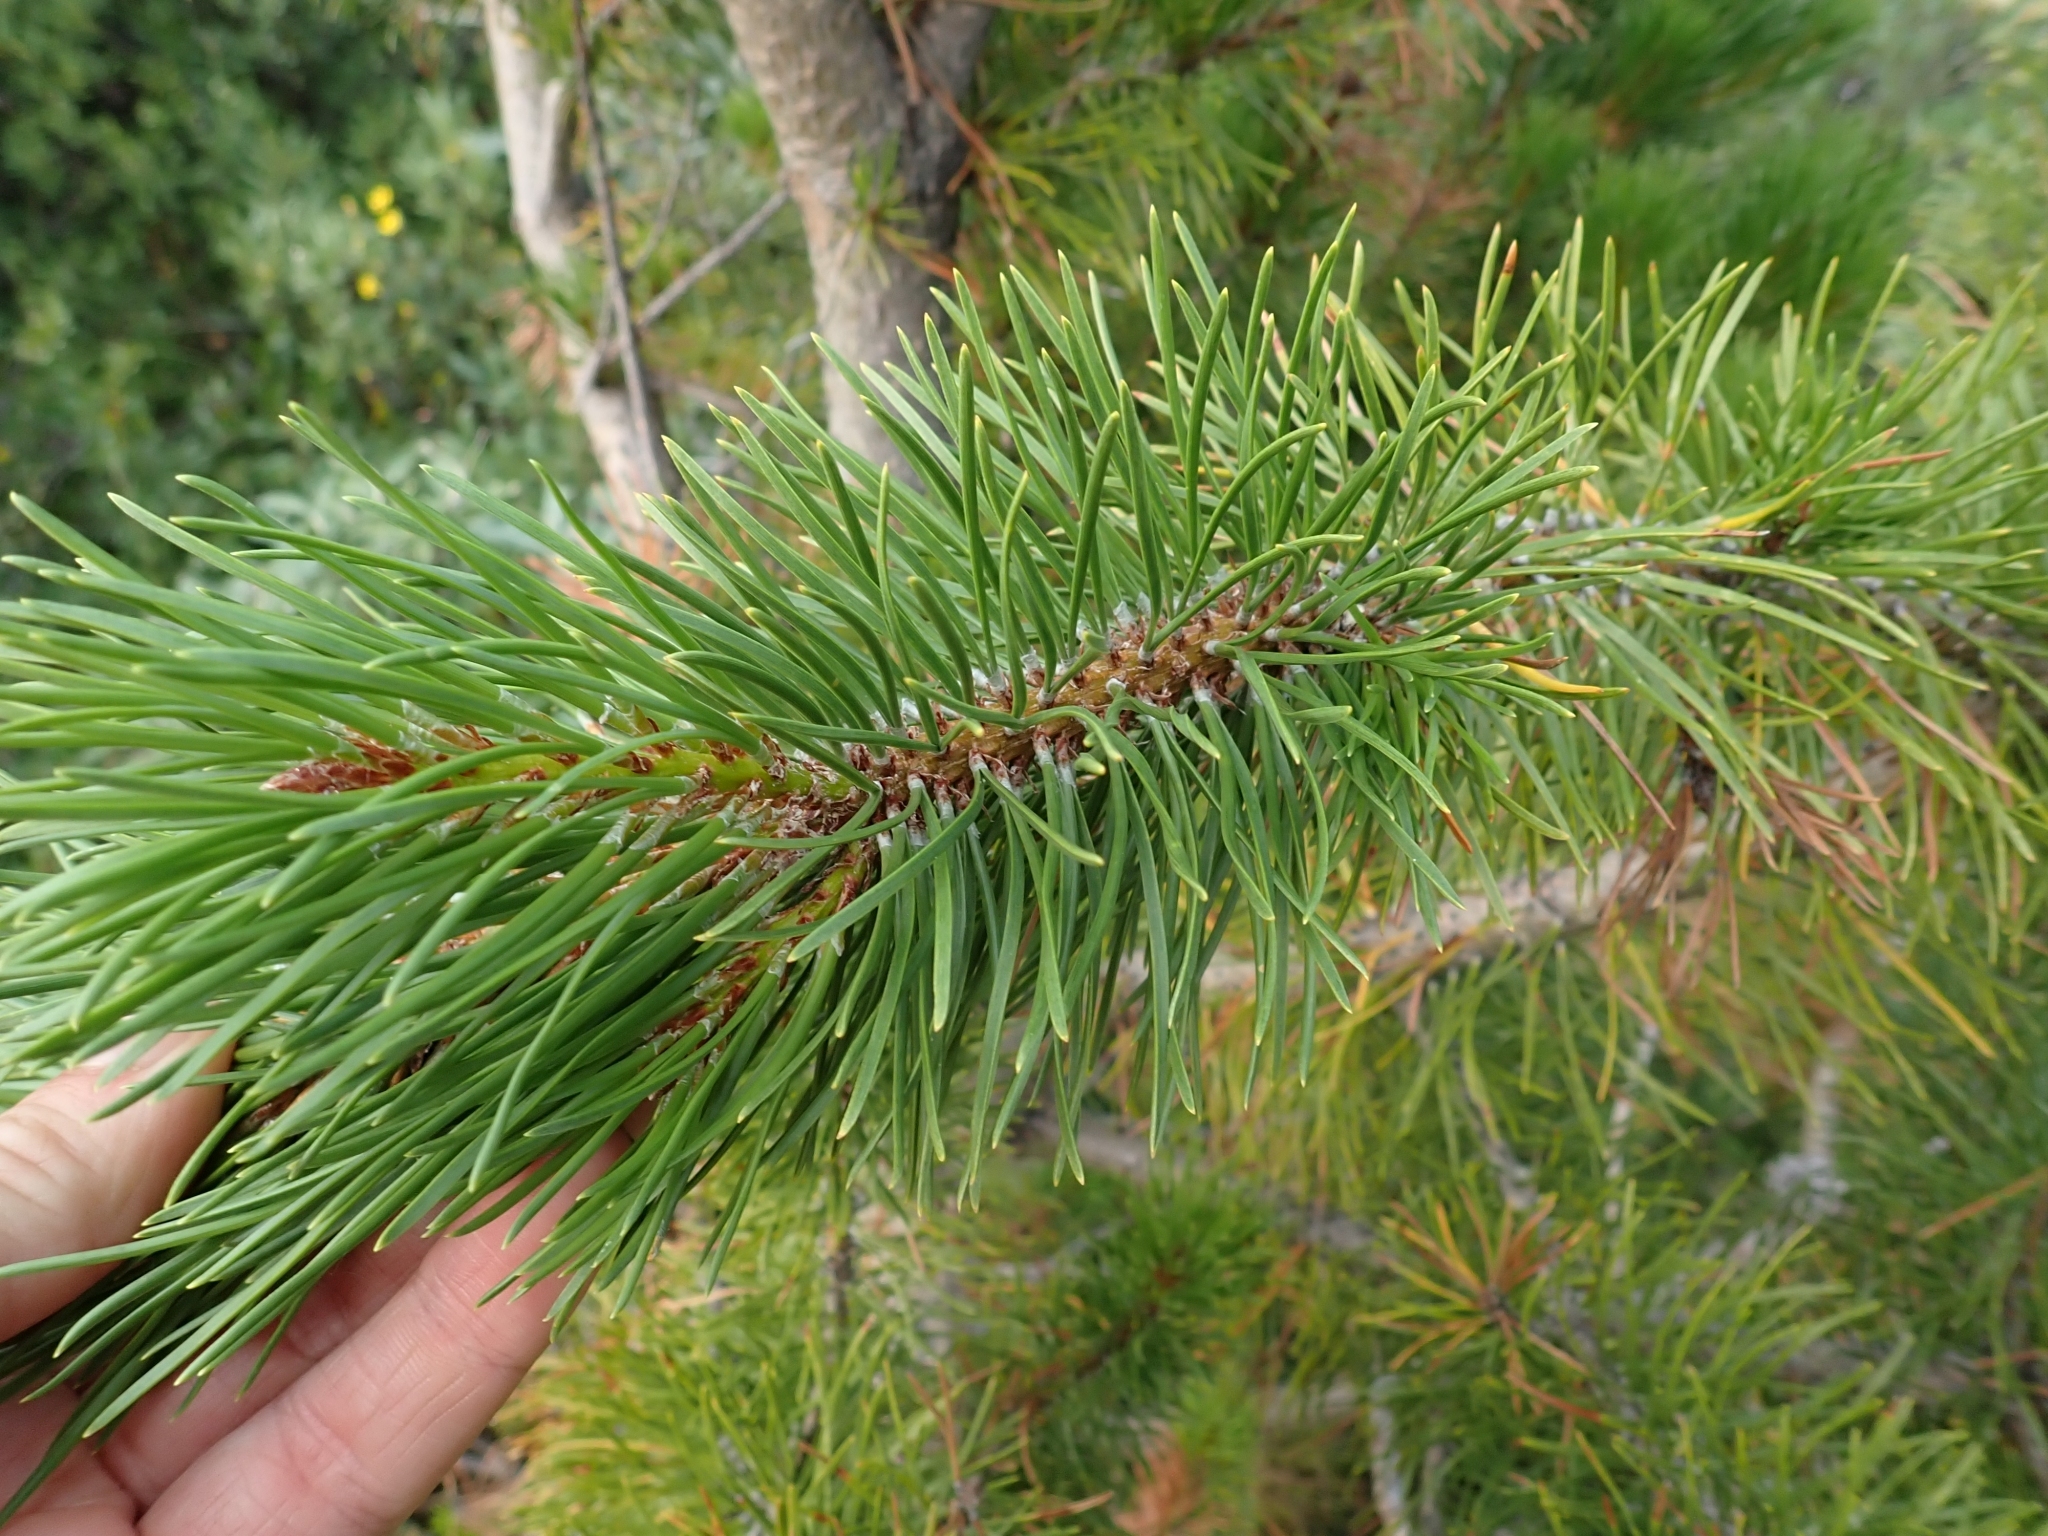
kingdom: Plantae
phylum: Tracheophyta
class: Pinopsida
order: Pinales
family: Pinaceae
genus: Pinus
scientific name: Pinus contorta
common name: Lodgepole pine
